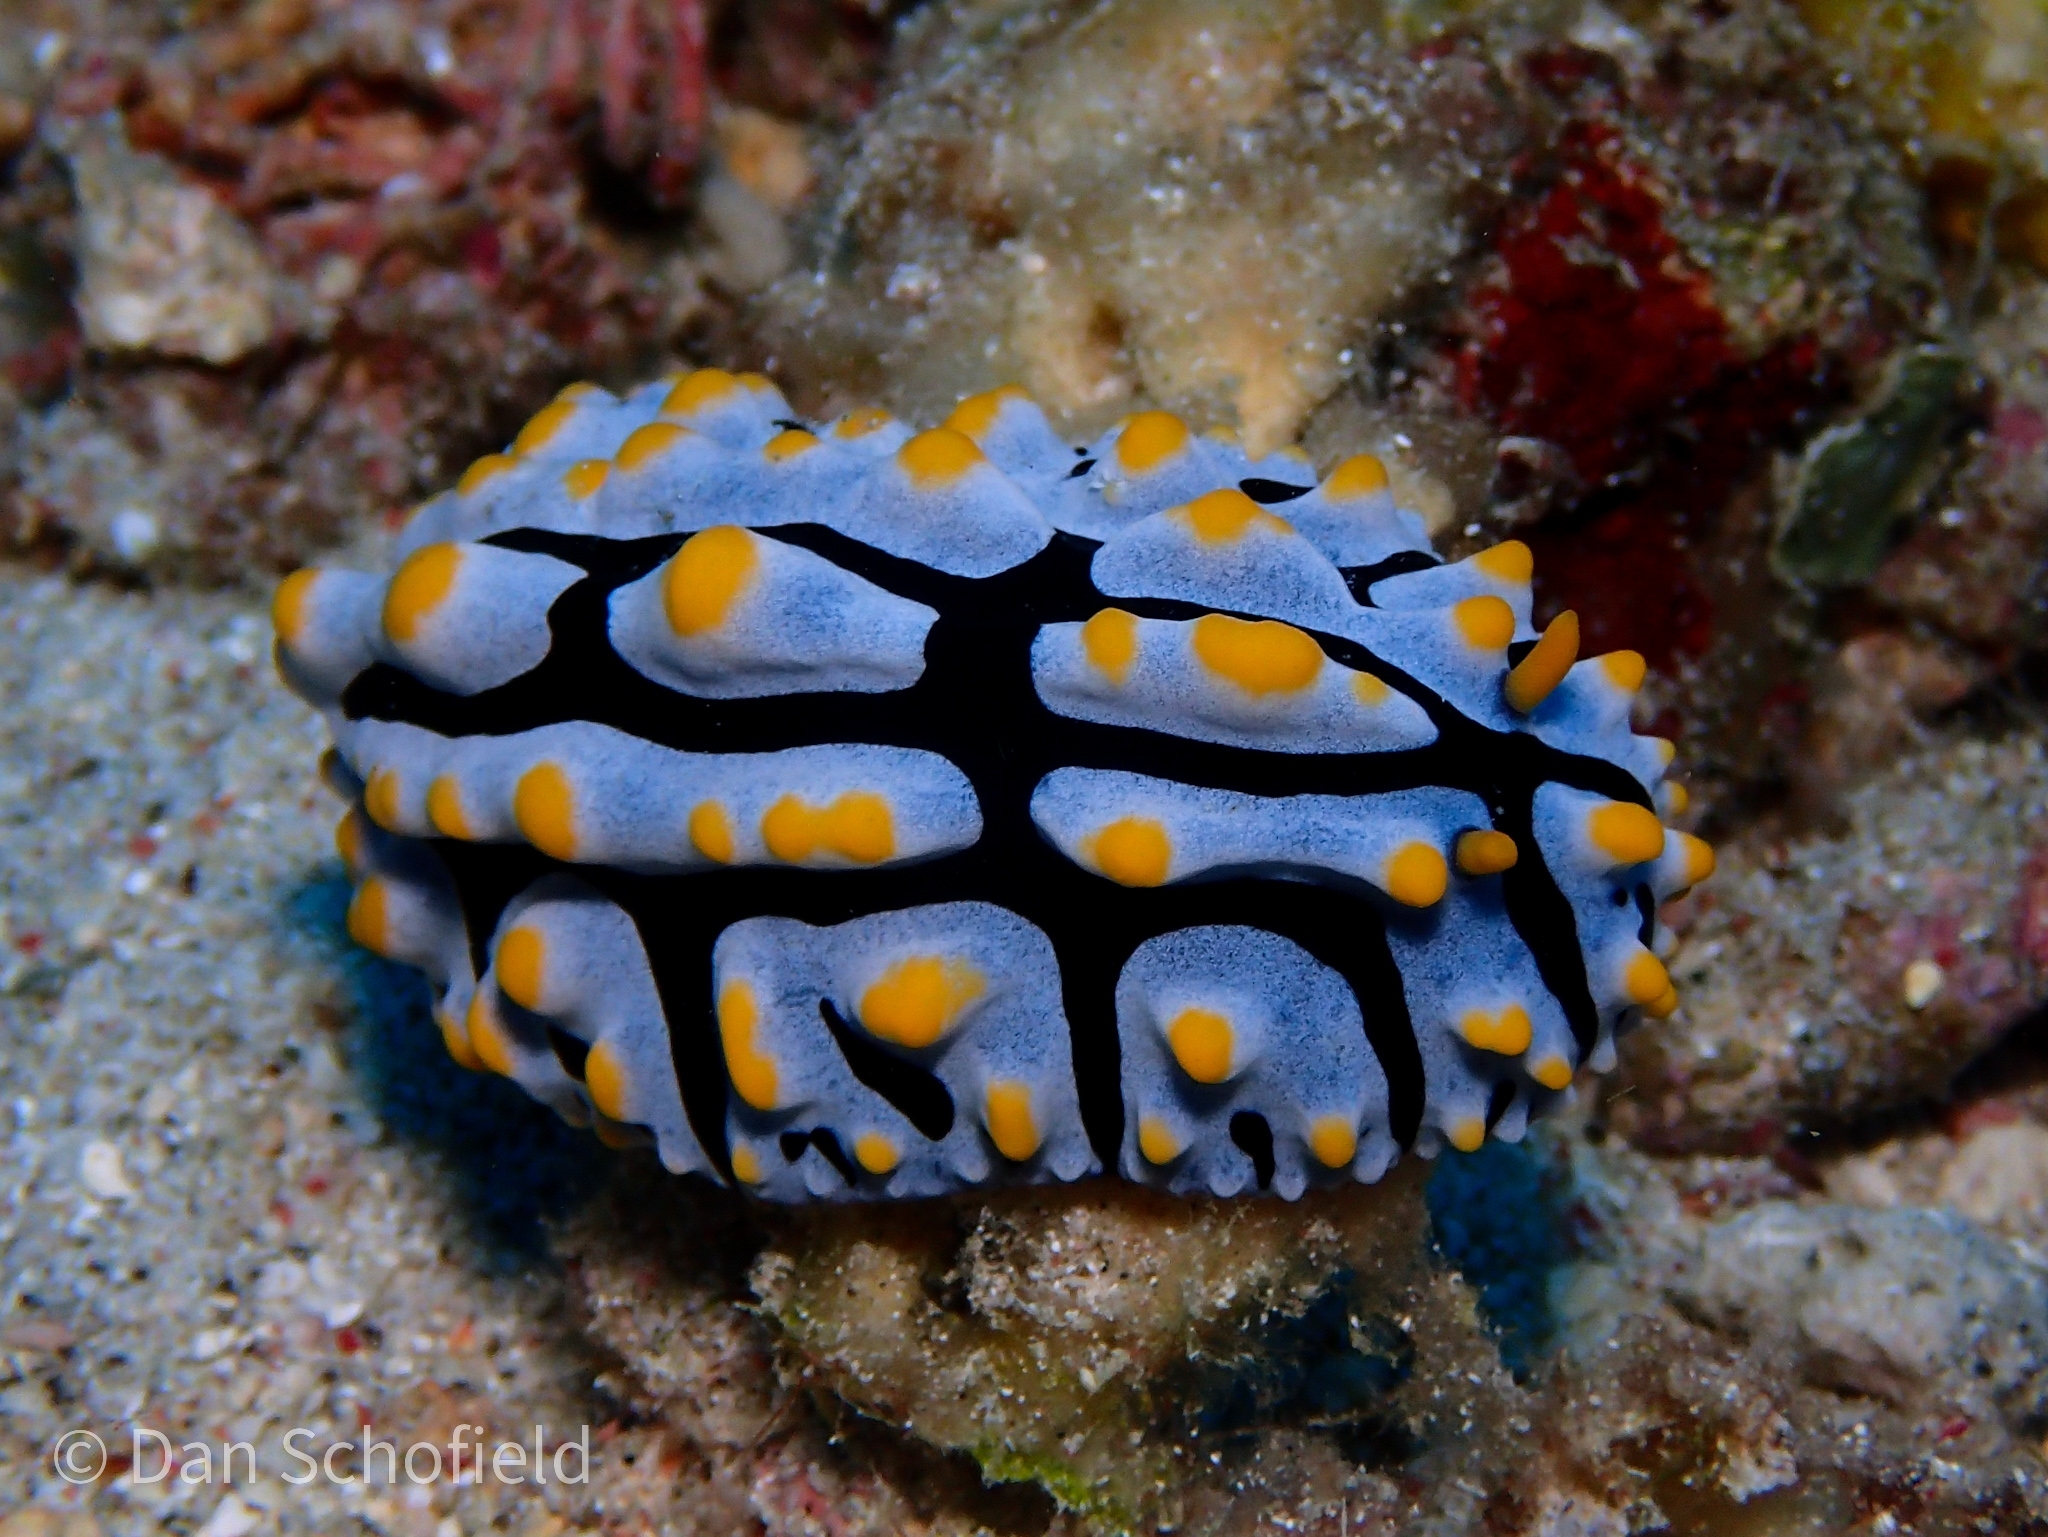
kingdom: Animalia
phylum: Mollusca
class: Gastropoda
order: Nudibranchia
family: Phyllidiidae
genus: Phyllidia
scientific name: Phyllidia varicosa
